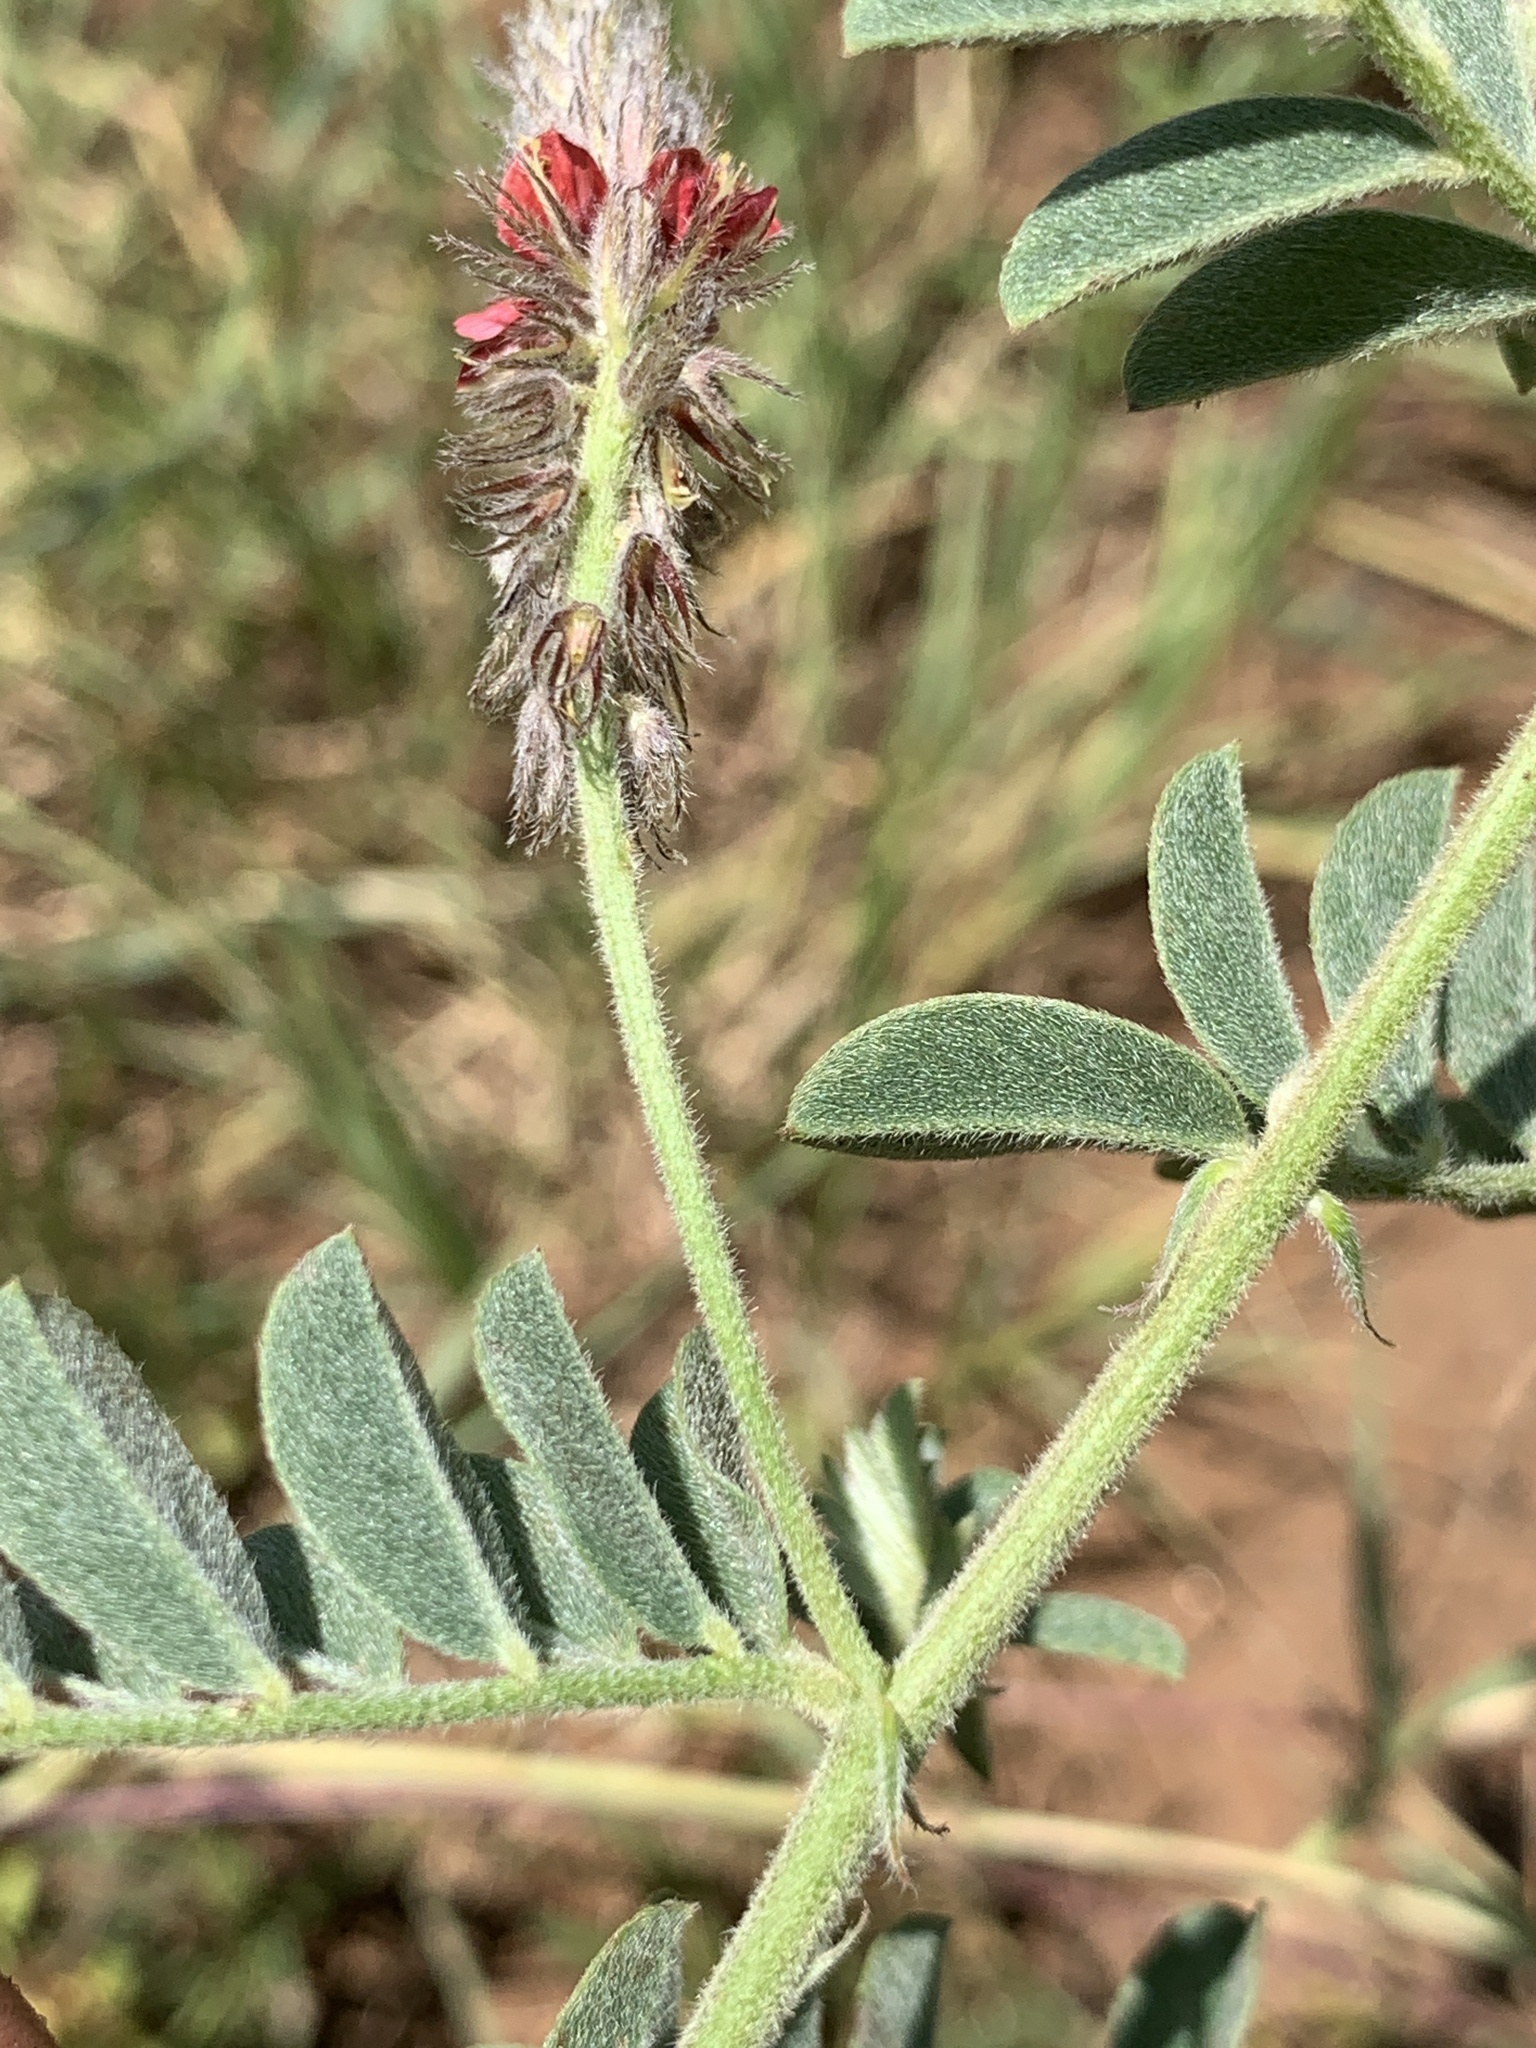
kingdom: Plantae
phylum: Tracheophyta
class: Magnoliopsida
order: Fabales
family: Fabaceae
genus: Indigofera
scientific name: Indigofera melanadenia
